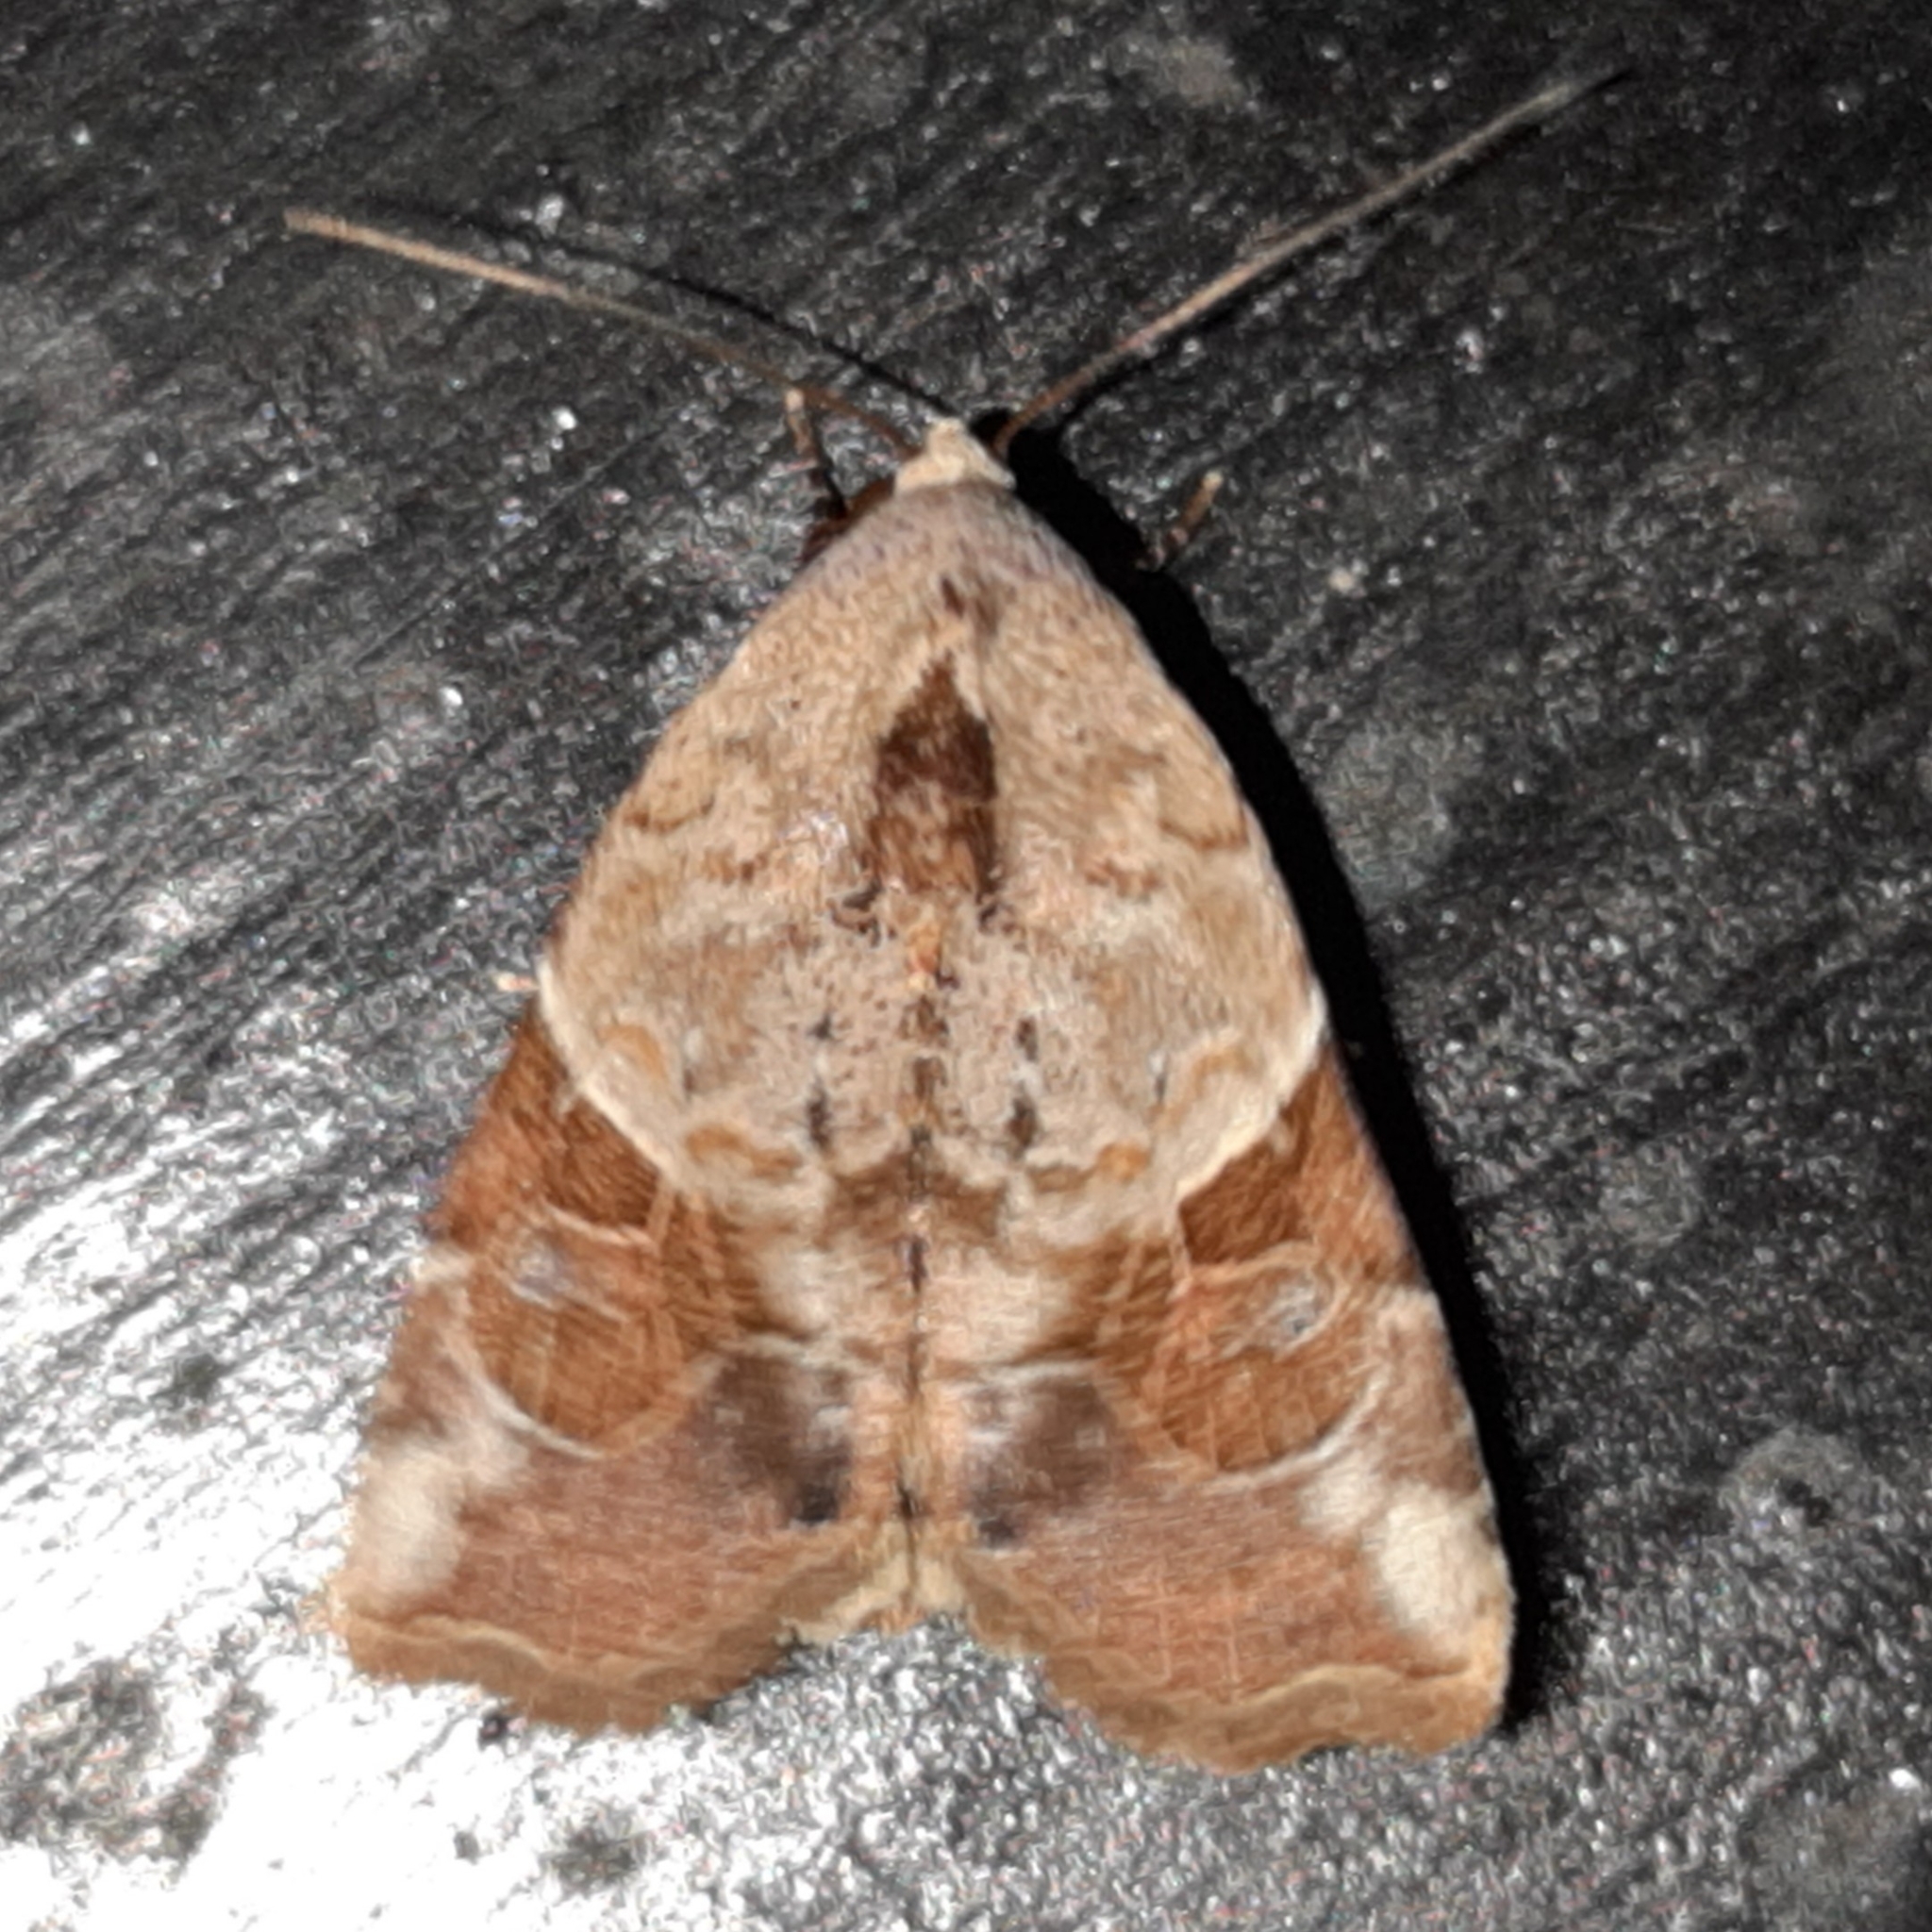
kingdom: Animalia
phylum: Arthropoda
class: Insecta
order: Lepidoptera
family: Noctuidae
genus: Gonodes
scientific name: Gonodes liquida
